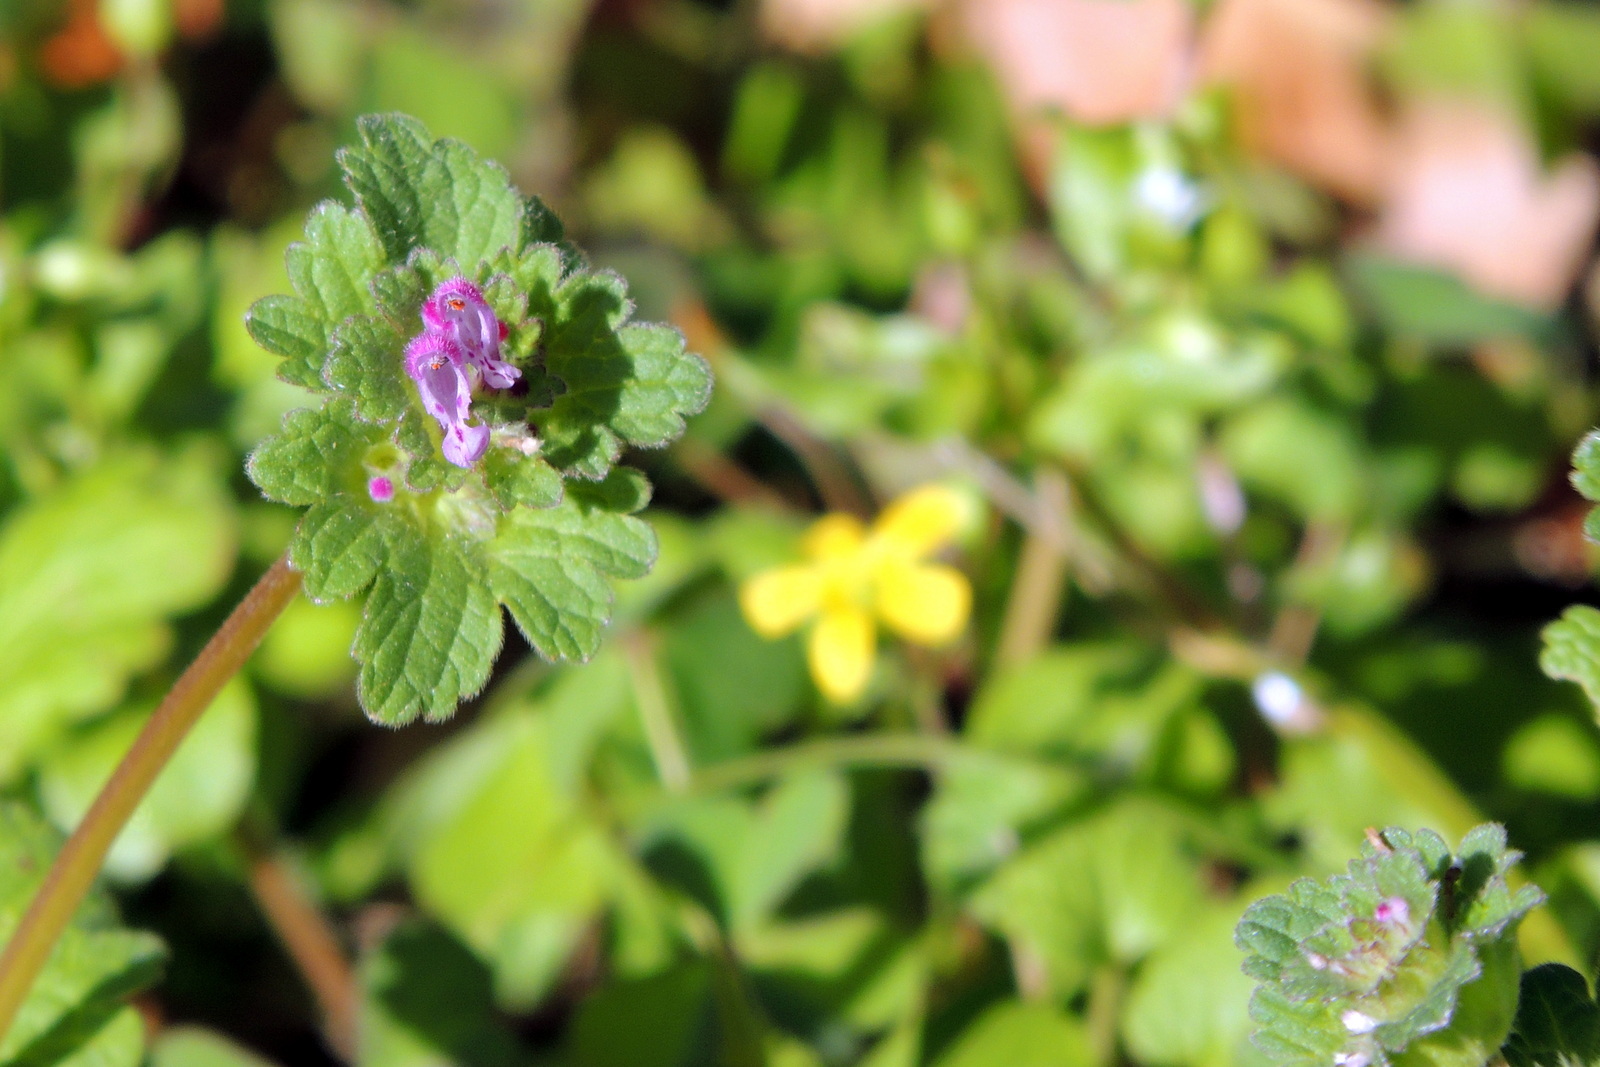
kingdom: Plantae
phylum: Tracheophyta
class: Magnoliopsida
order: Lamiales
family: Lamiaceae
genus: Lamium
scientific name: Lamium amplexicaule
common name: Henbit dead-nettle
